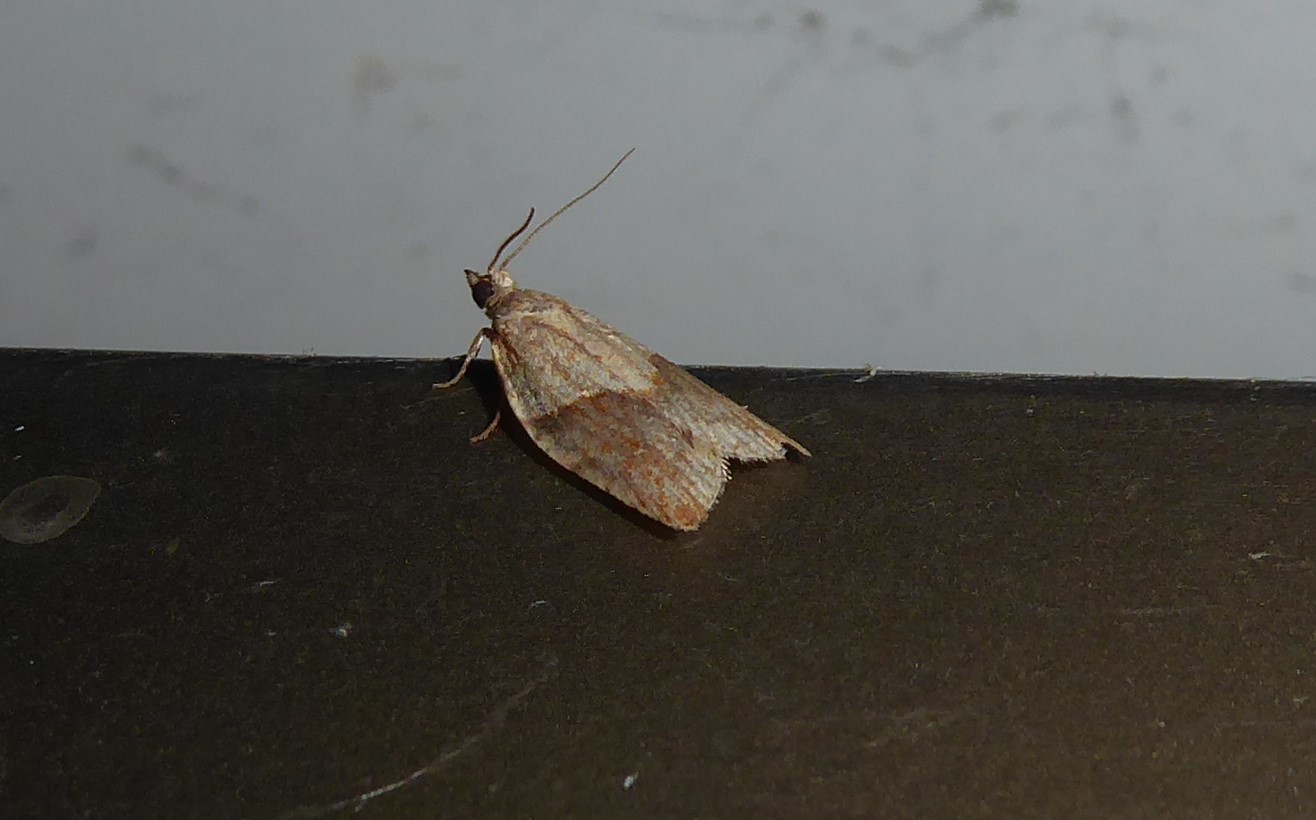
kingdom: Animalia
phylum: Arthropoda
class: Insecta
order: Lepidoptera
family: Tortricidae
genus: Epiphyas
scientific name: Epiphyas postvittana
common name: Light brown apple moth
